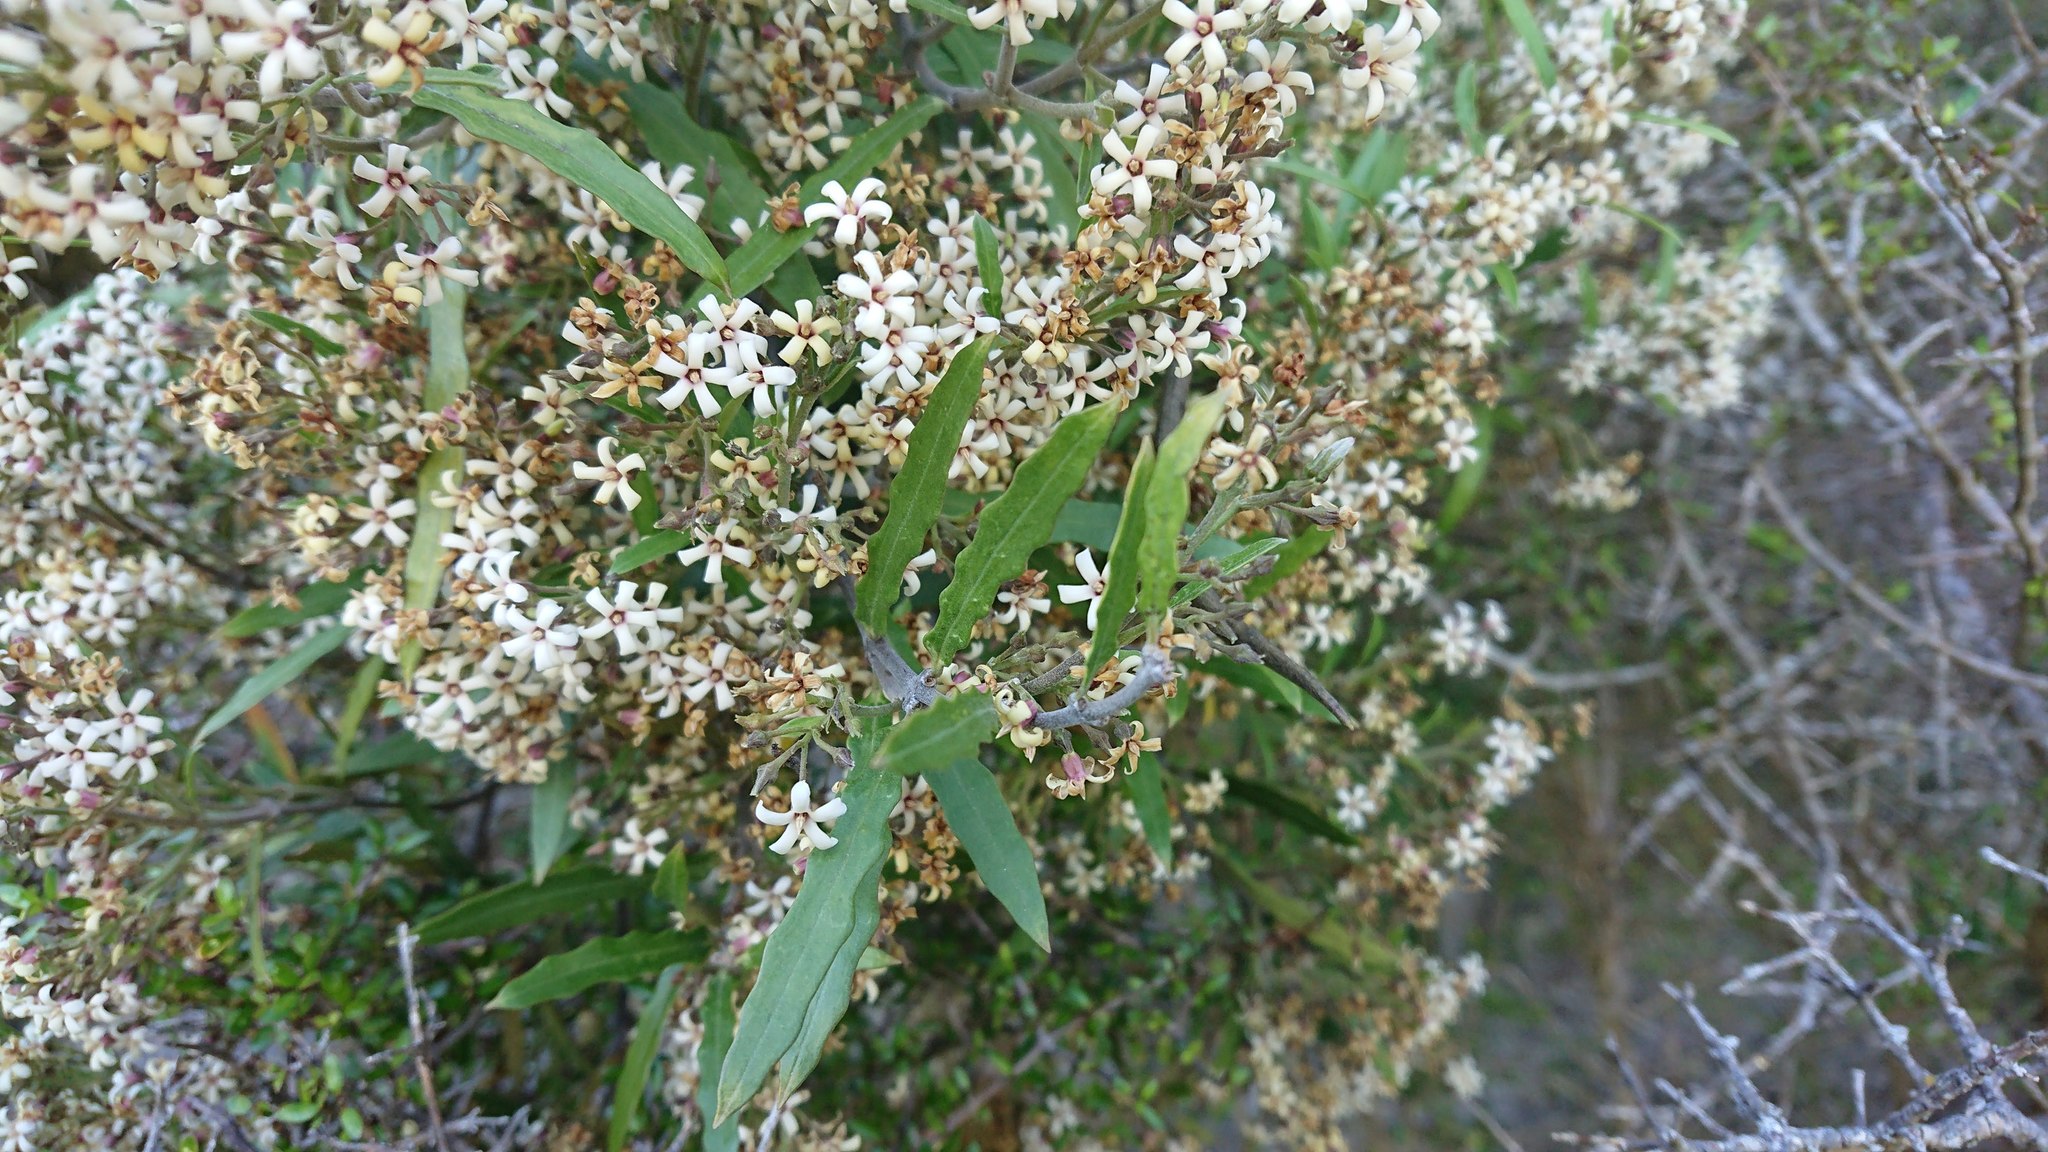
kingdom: Plantae
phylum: Tracheophyta
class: Magnoliopsida
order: Gentianales
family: Apocynaceae
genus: Parsonsia
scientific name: Parsonsia capsularis
